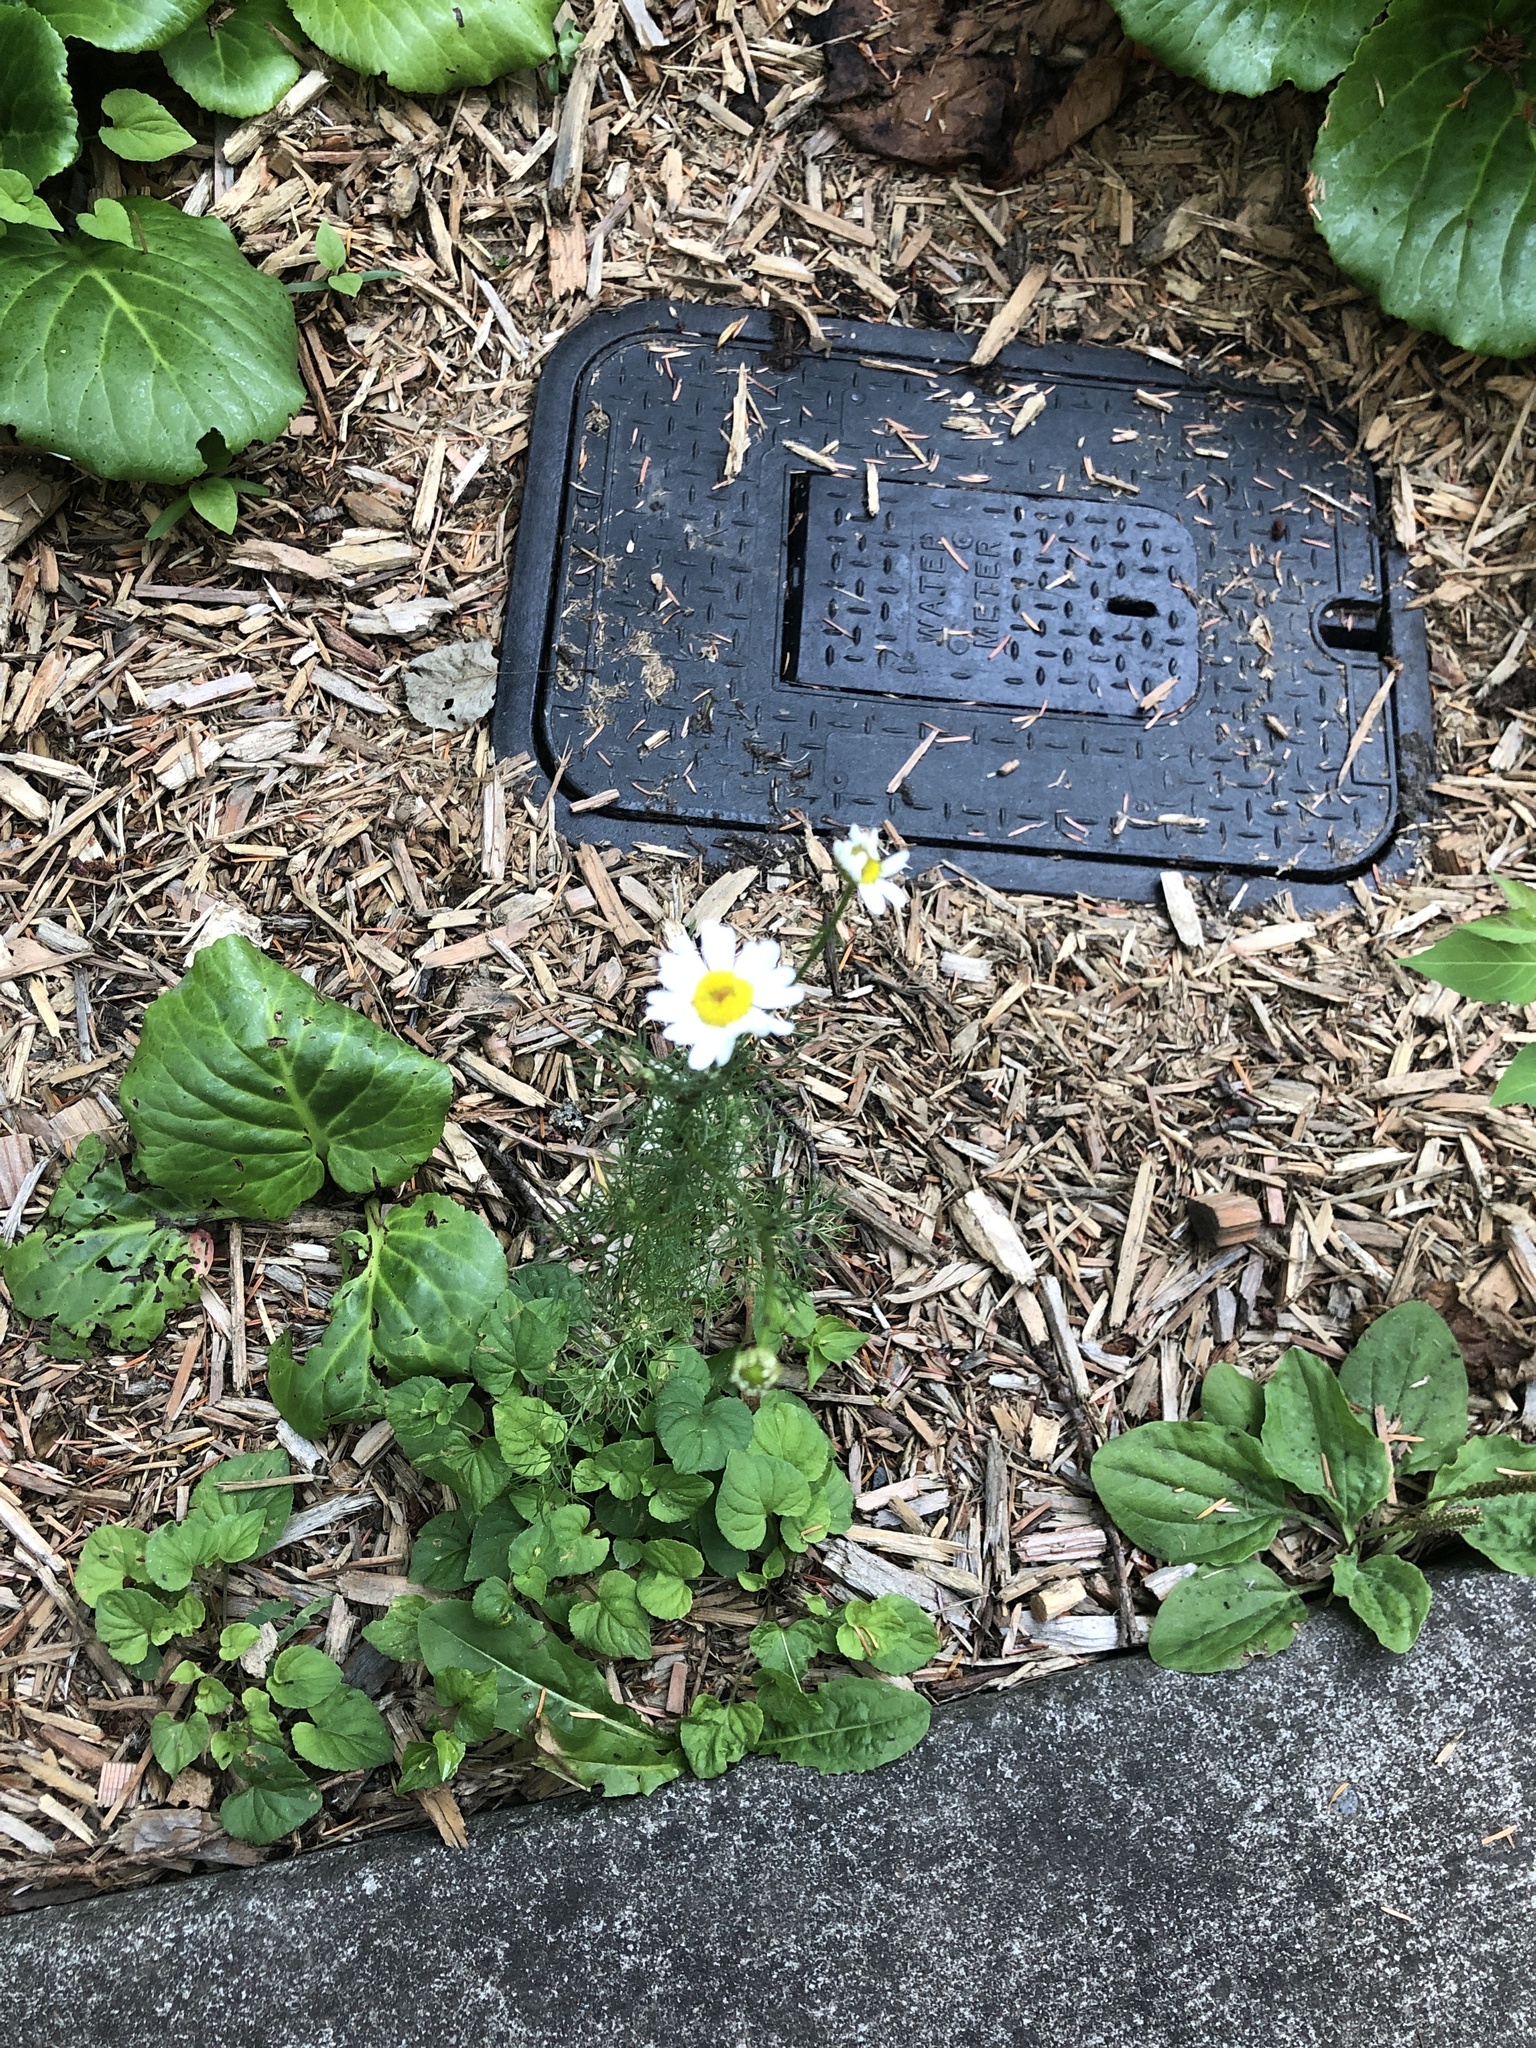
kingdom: Plantae
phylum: Tracheophyta
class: Magnoliopsida
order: Asterales
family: Asteraceae
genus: Tripleurospermum
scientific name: Tripleurospermum inodorum
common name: Scentless mayweed
